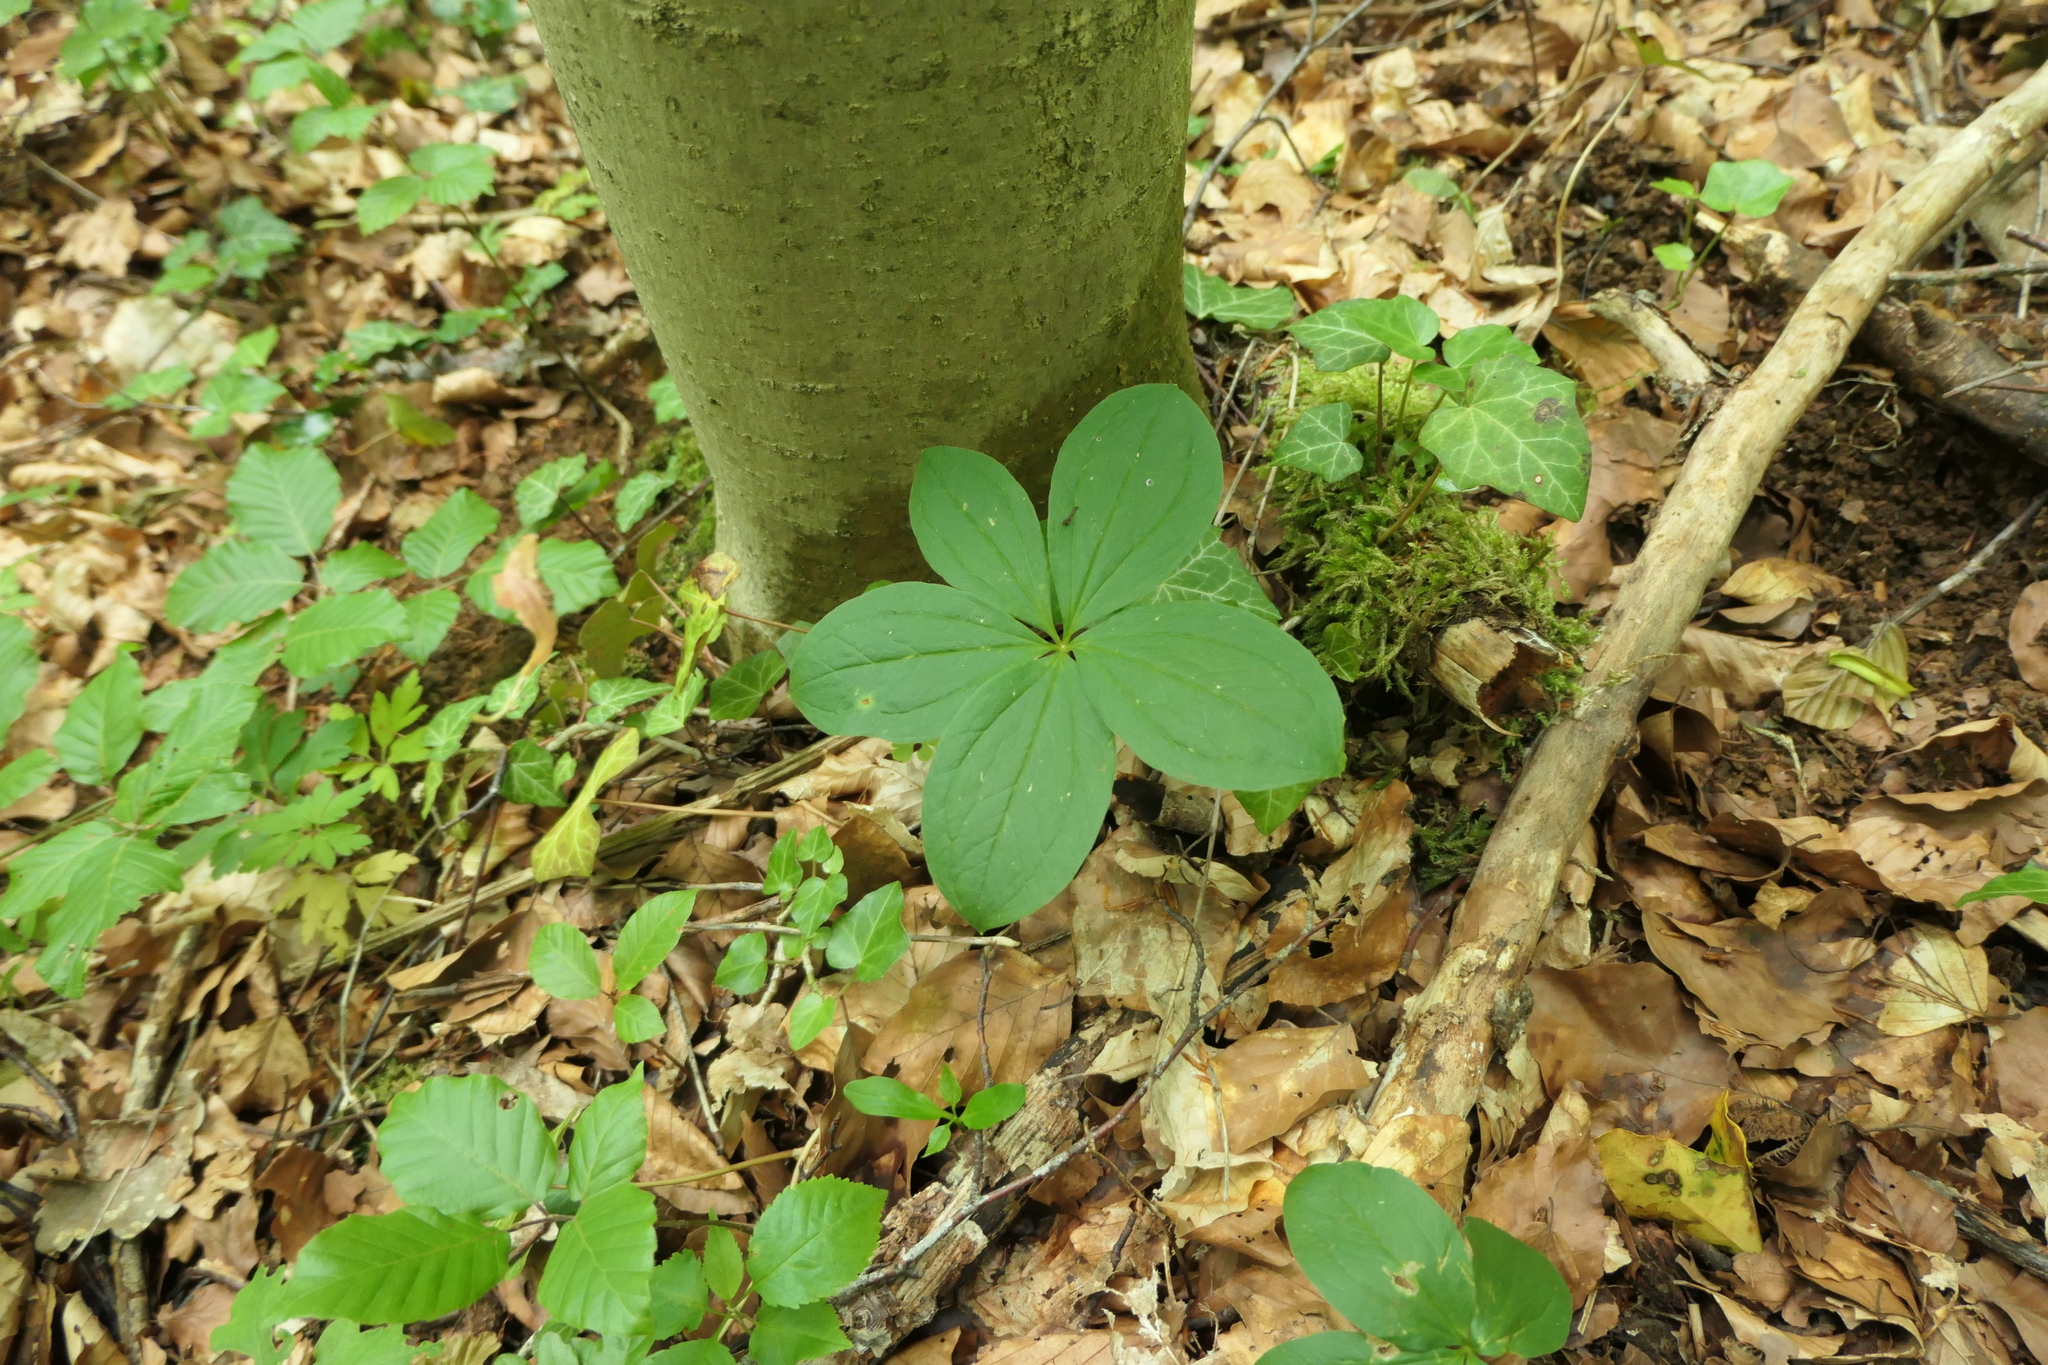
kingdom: Plantae
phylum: Tracheophyta
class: Liliopsida
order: Liliales
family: Melanthiaceae
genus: Paris
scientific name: Paris quadrifolia
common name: Herb-paris
